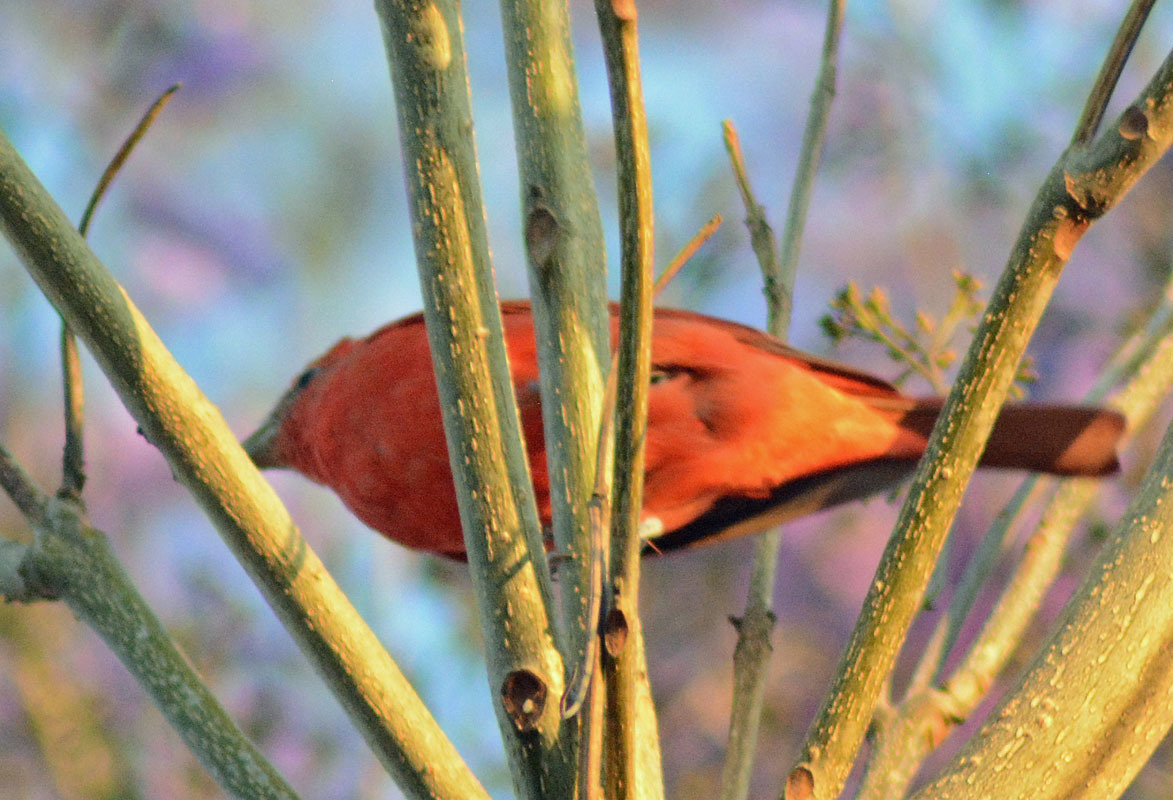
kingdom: Animalia
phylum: Chordata
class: Aves
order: Passeriformes
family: Cardinalidae
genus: Piranga
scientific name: Piranga rubra
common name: Summer tanager
